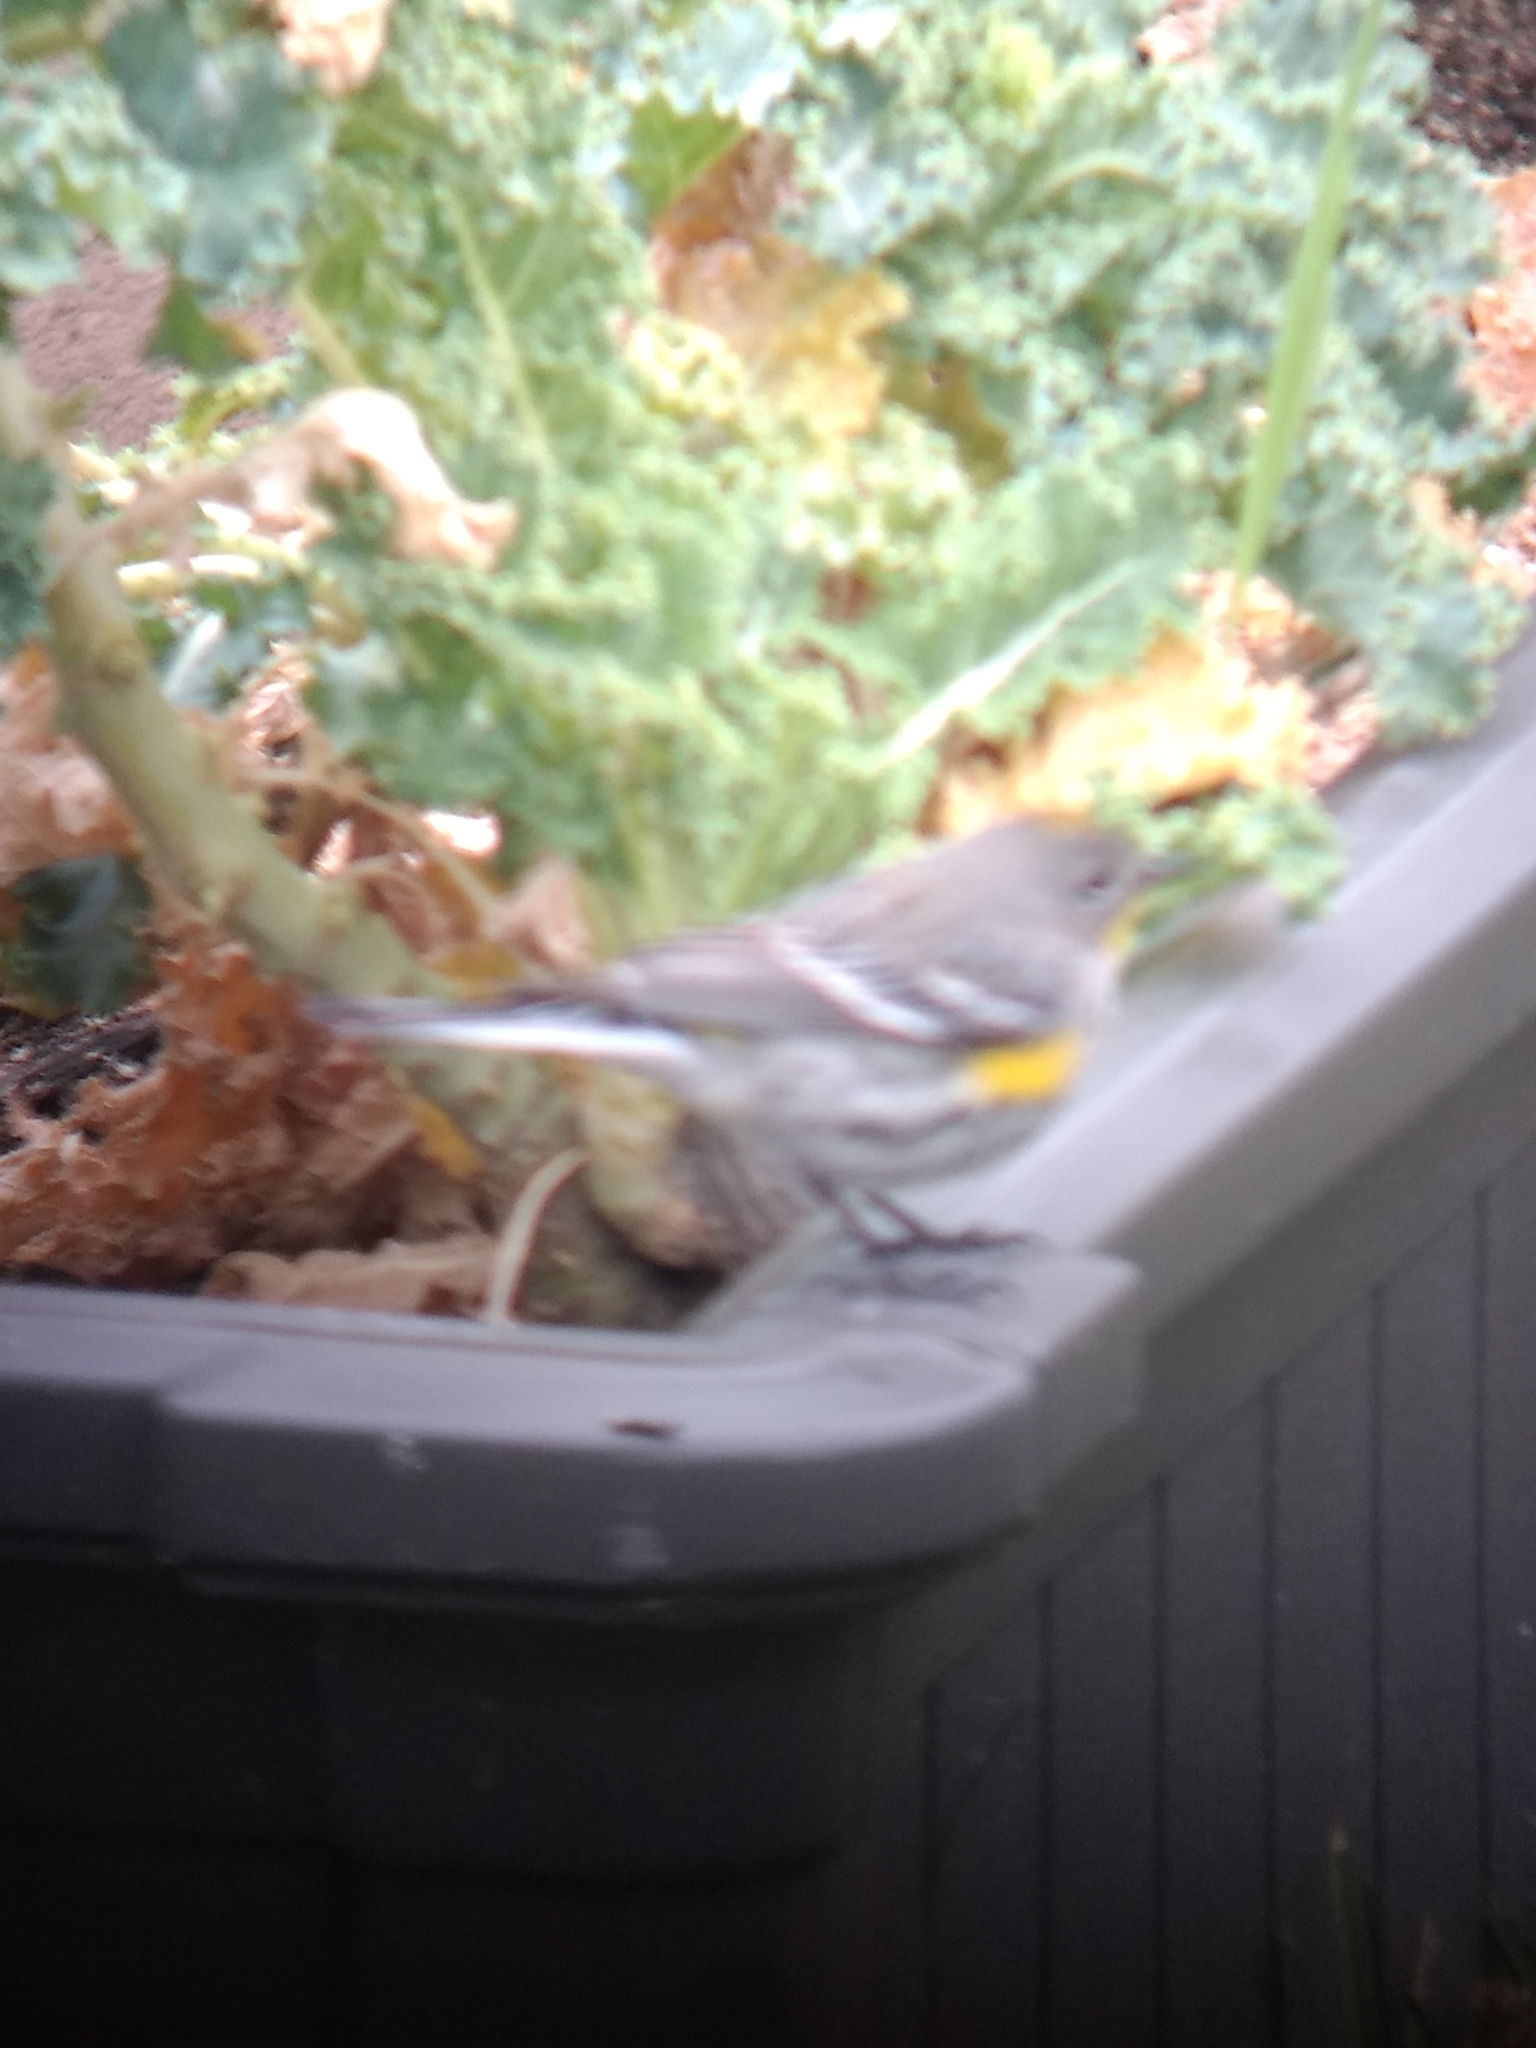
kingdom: Animalia
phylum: Chordata
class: Aves
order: Passeriformes
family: Parulidae
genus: Setophaga
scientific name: Setophaga coronata
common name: Myrtle warbler
